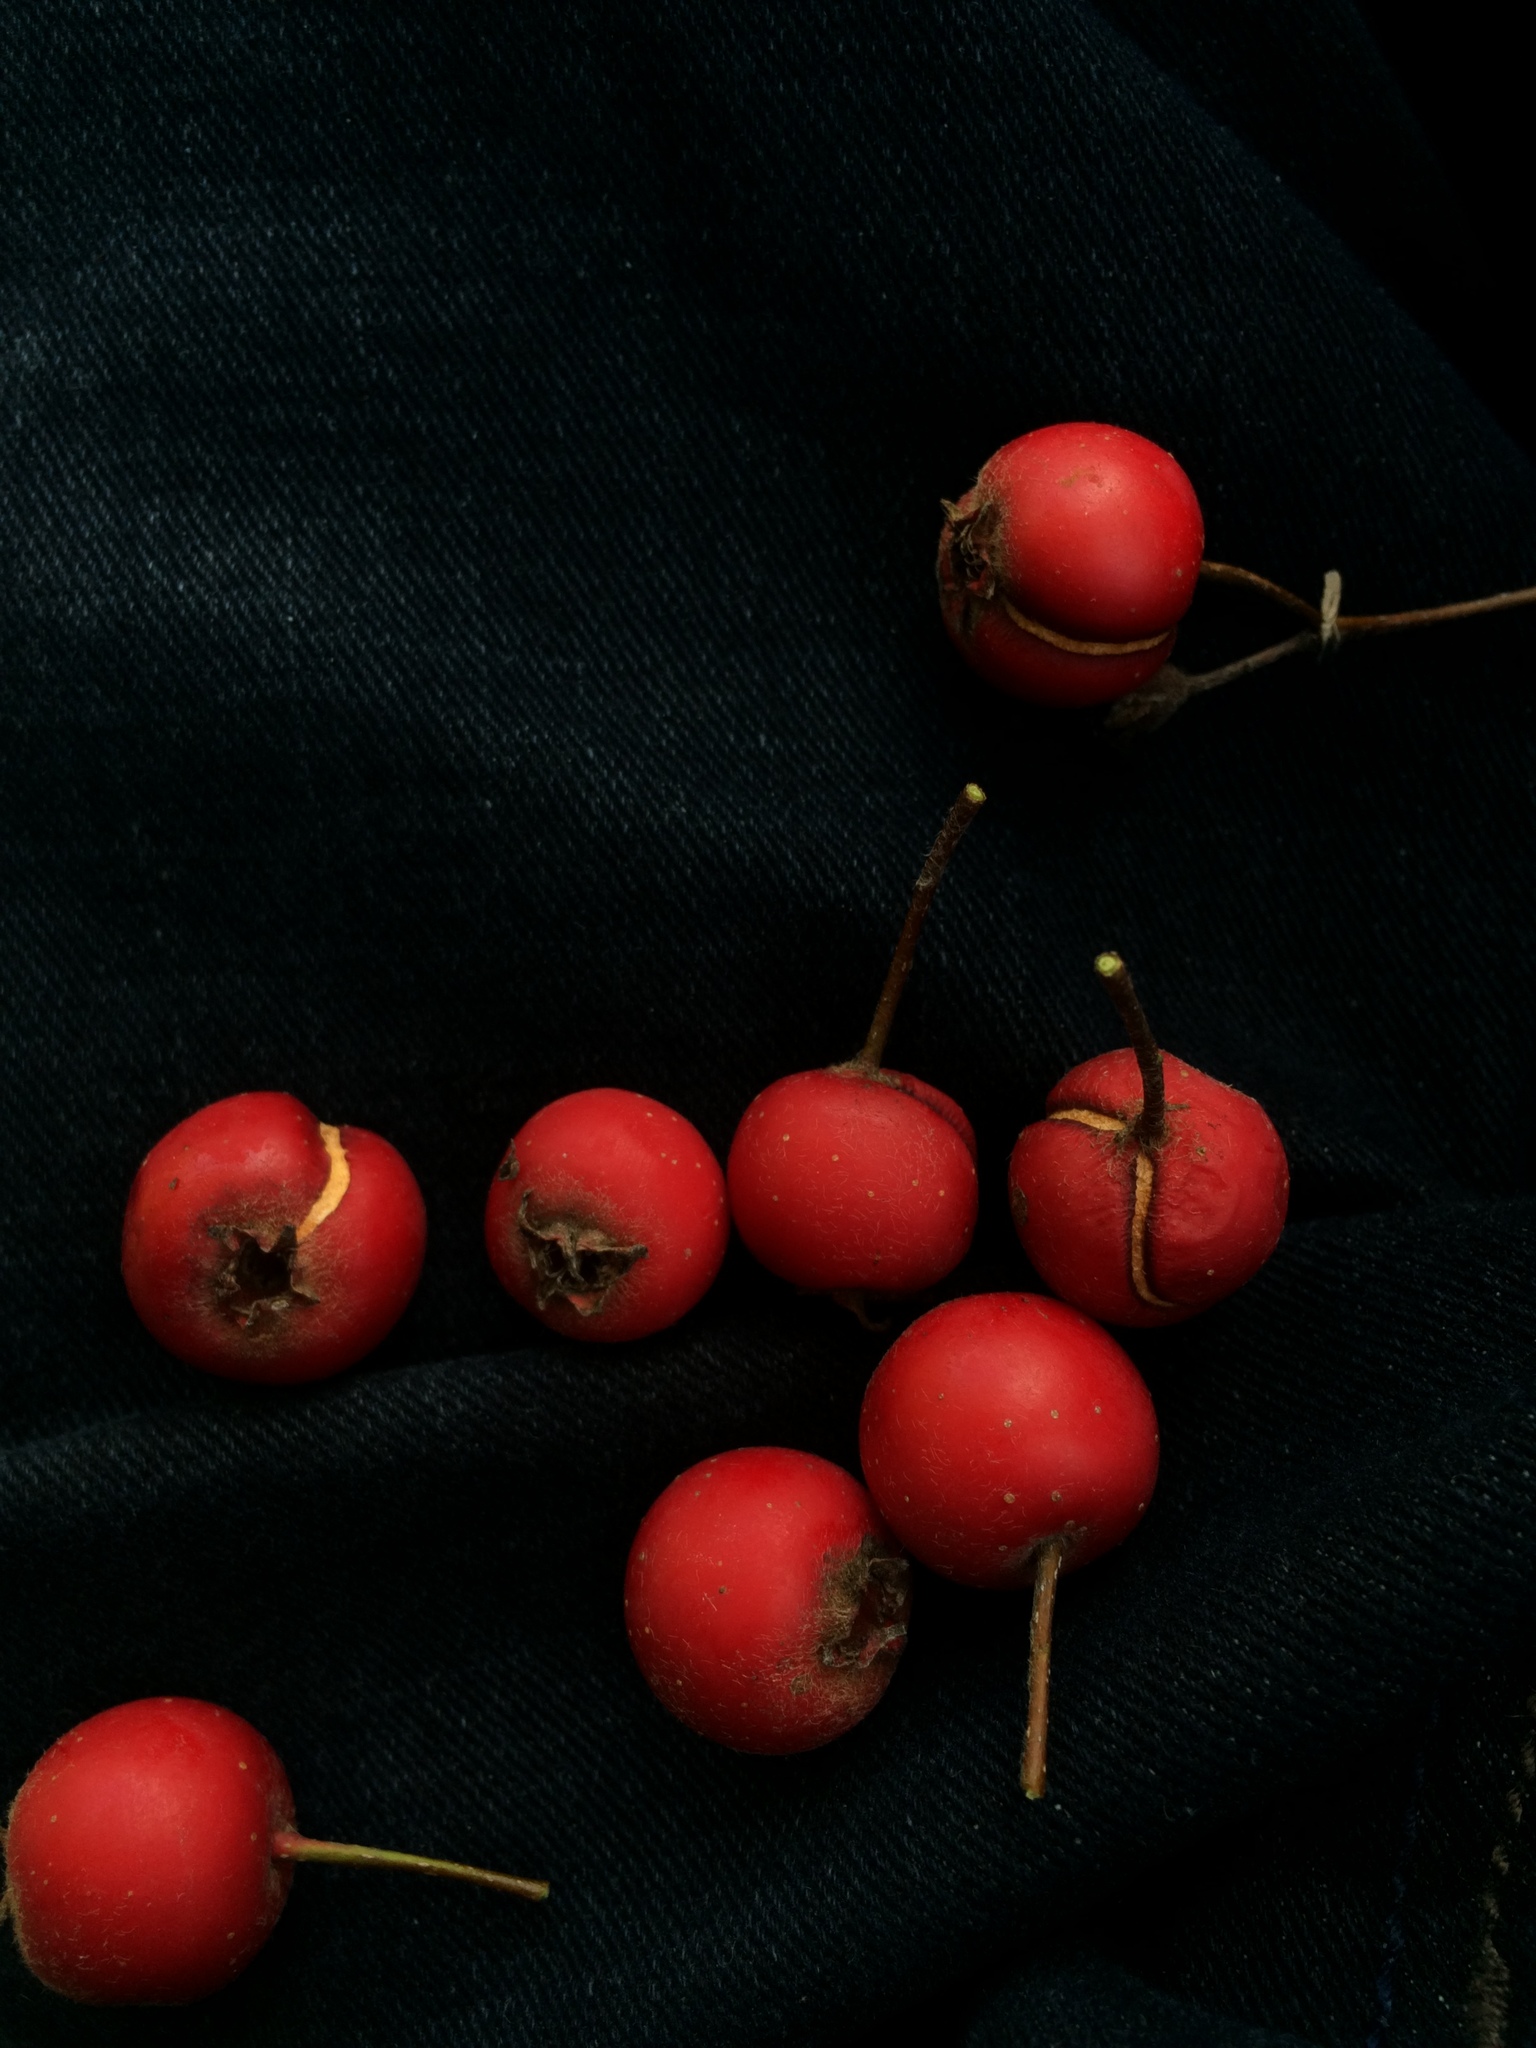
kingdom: Plantae
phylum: Tracheophyta
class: Magnoliopsida
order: Rosales
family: Rosaceae
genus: Crataegus
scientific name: Crataegus submollis
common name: Hairy cockspurthorn
